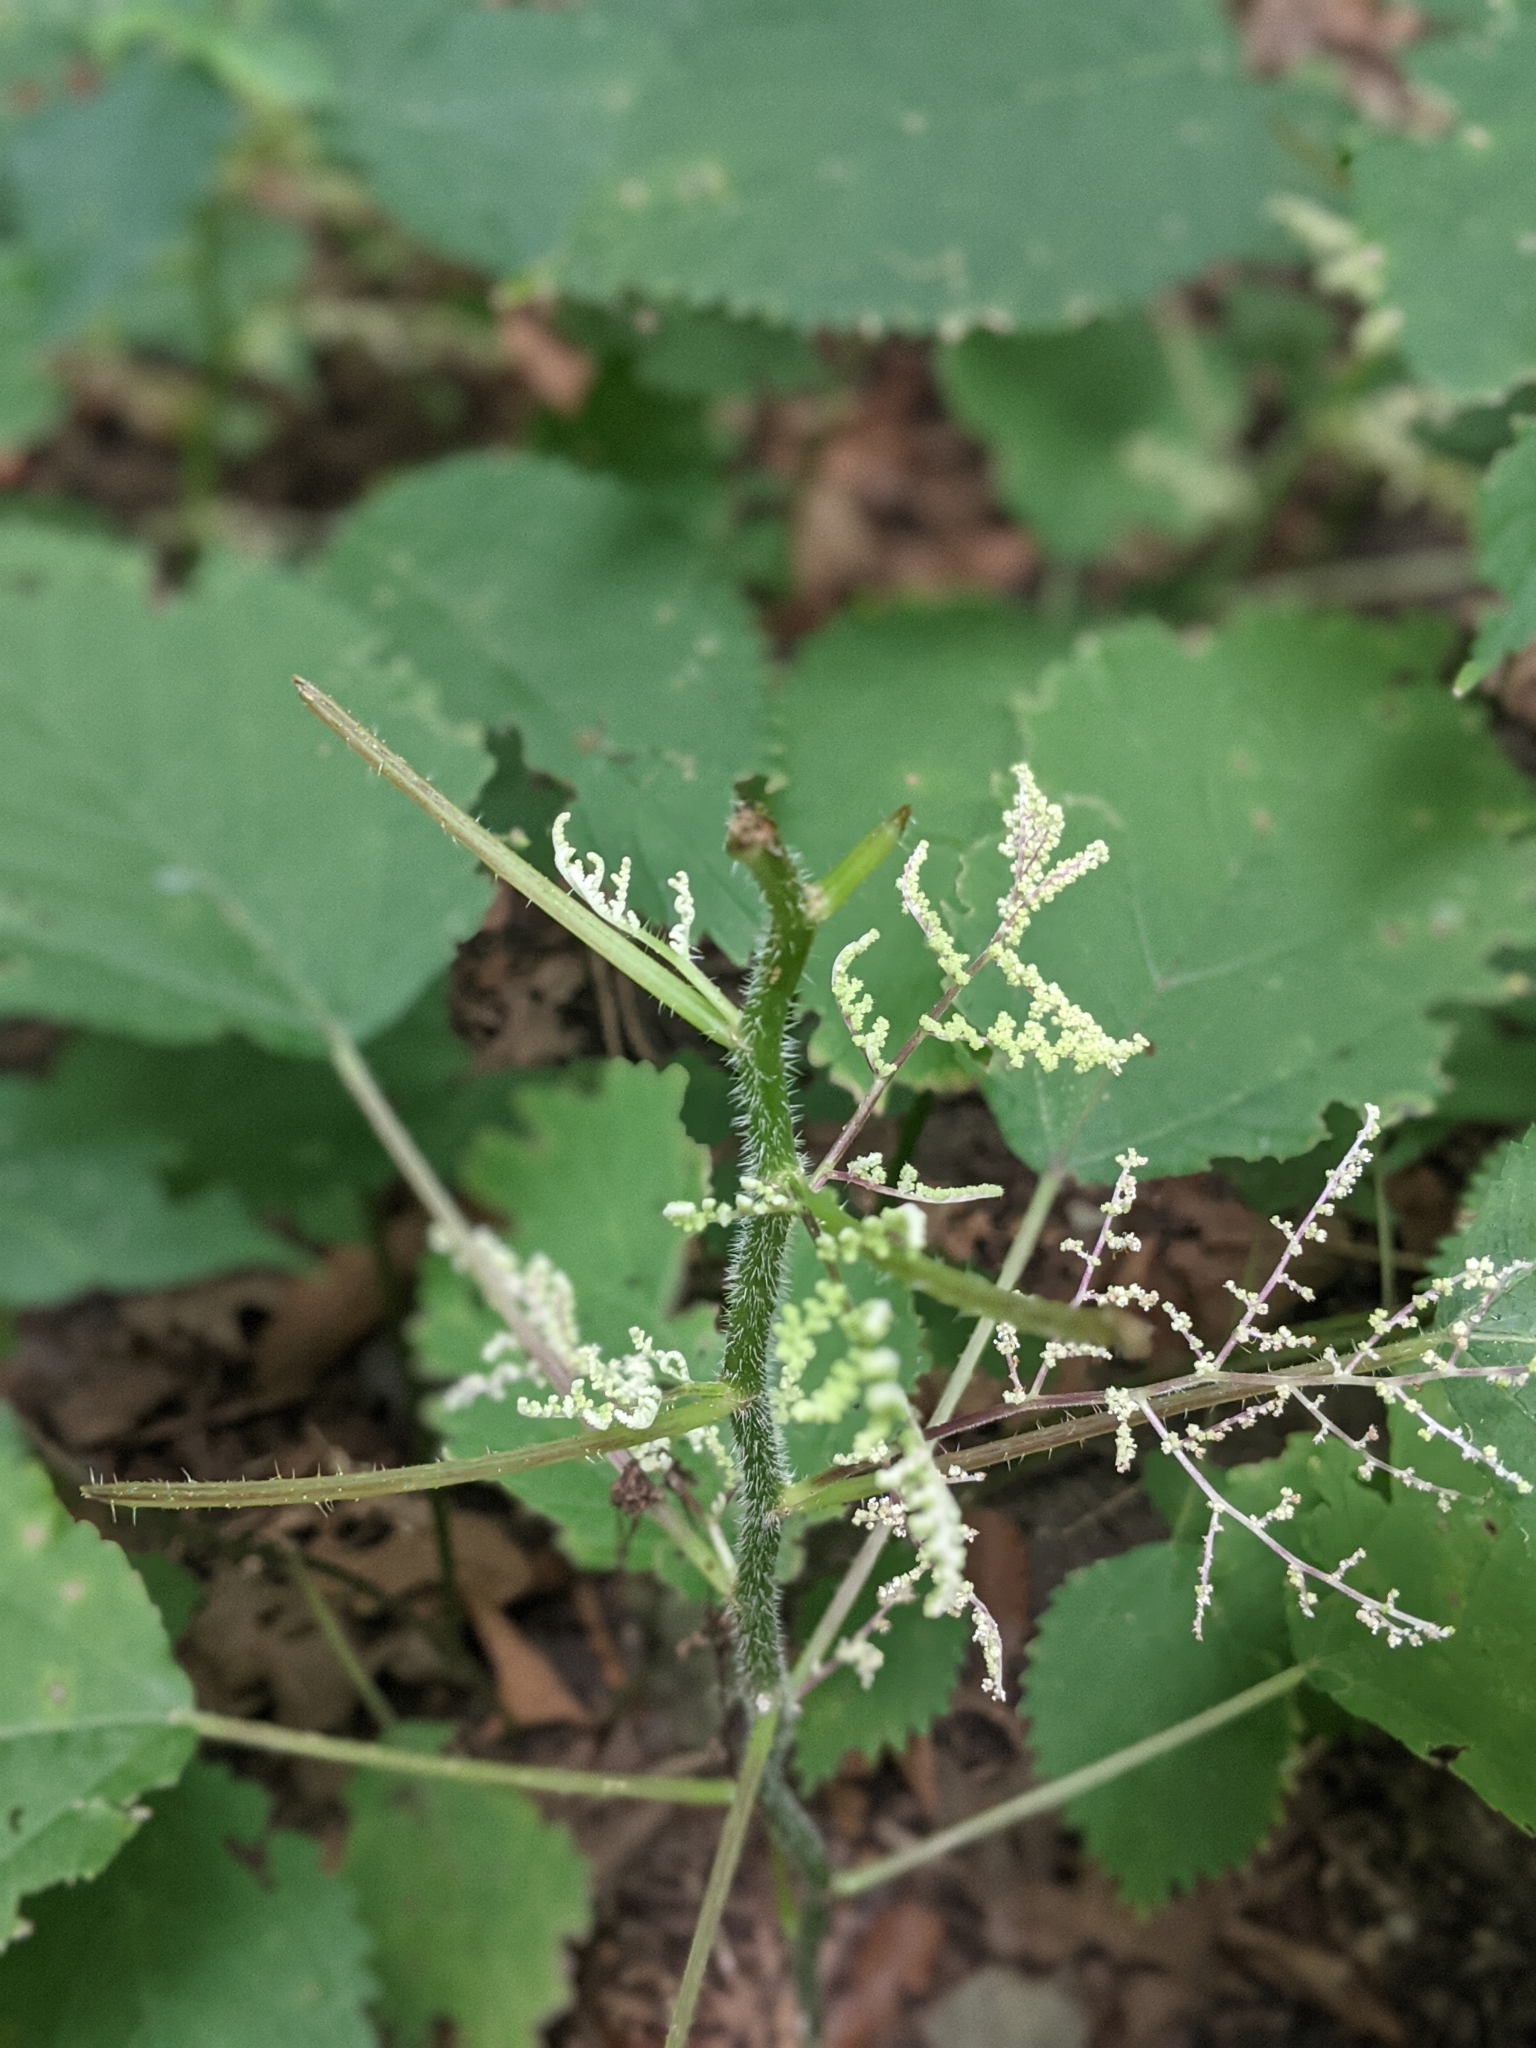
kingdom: Plantae
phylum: Tracheophyta
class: Magnoliopsida
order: Rosales
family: Urticaceae
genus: Laportea
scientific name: Laportea canadensis
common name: Canada nettle
